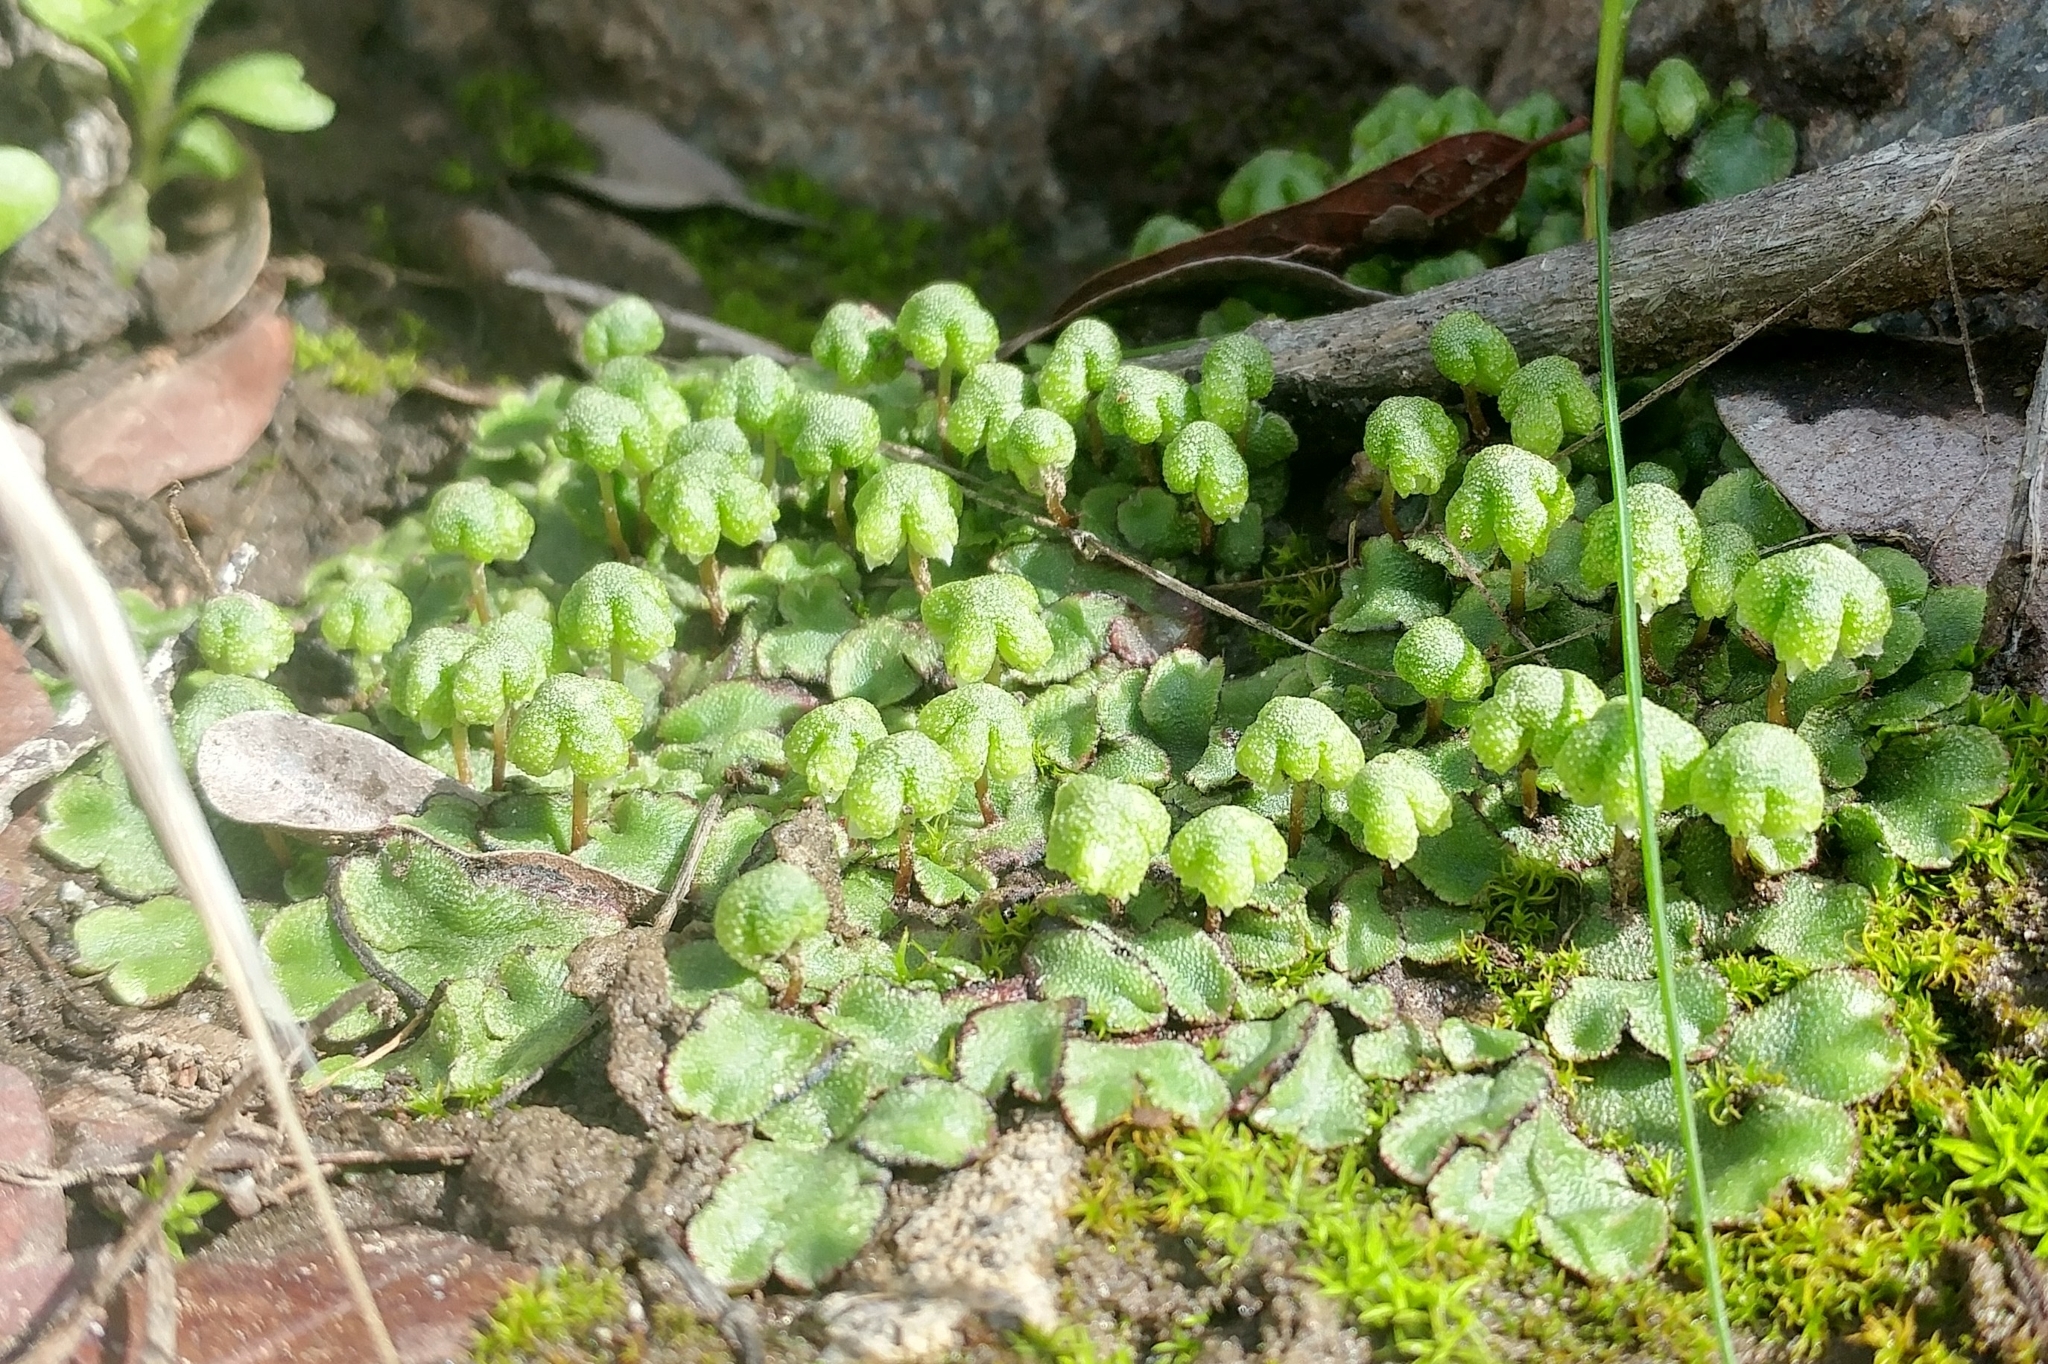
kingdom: Plantae
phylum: Marchantiophyta
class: Marchantiopsida
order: Marchantiales
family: Aytoniaceae
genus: Asterella
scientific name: Asterella californica
